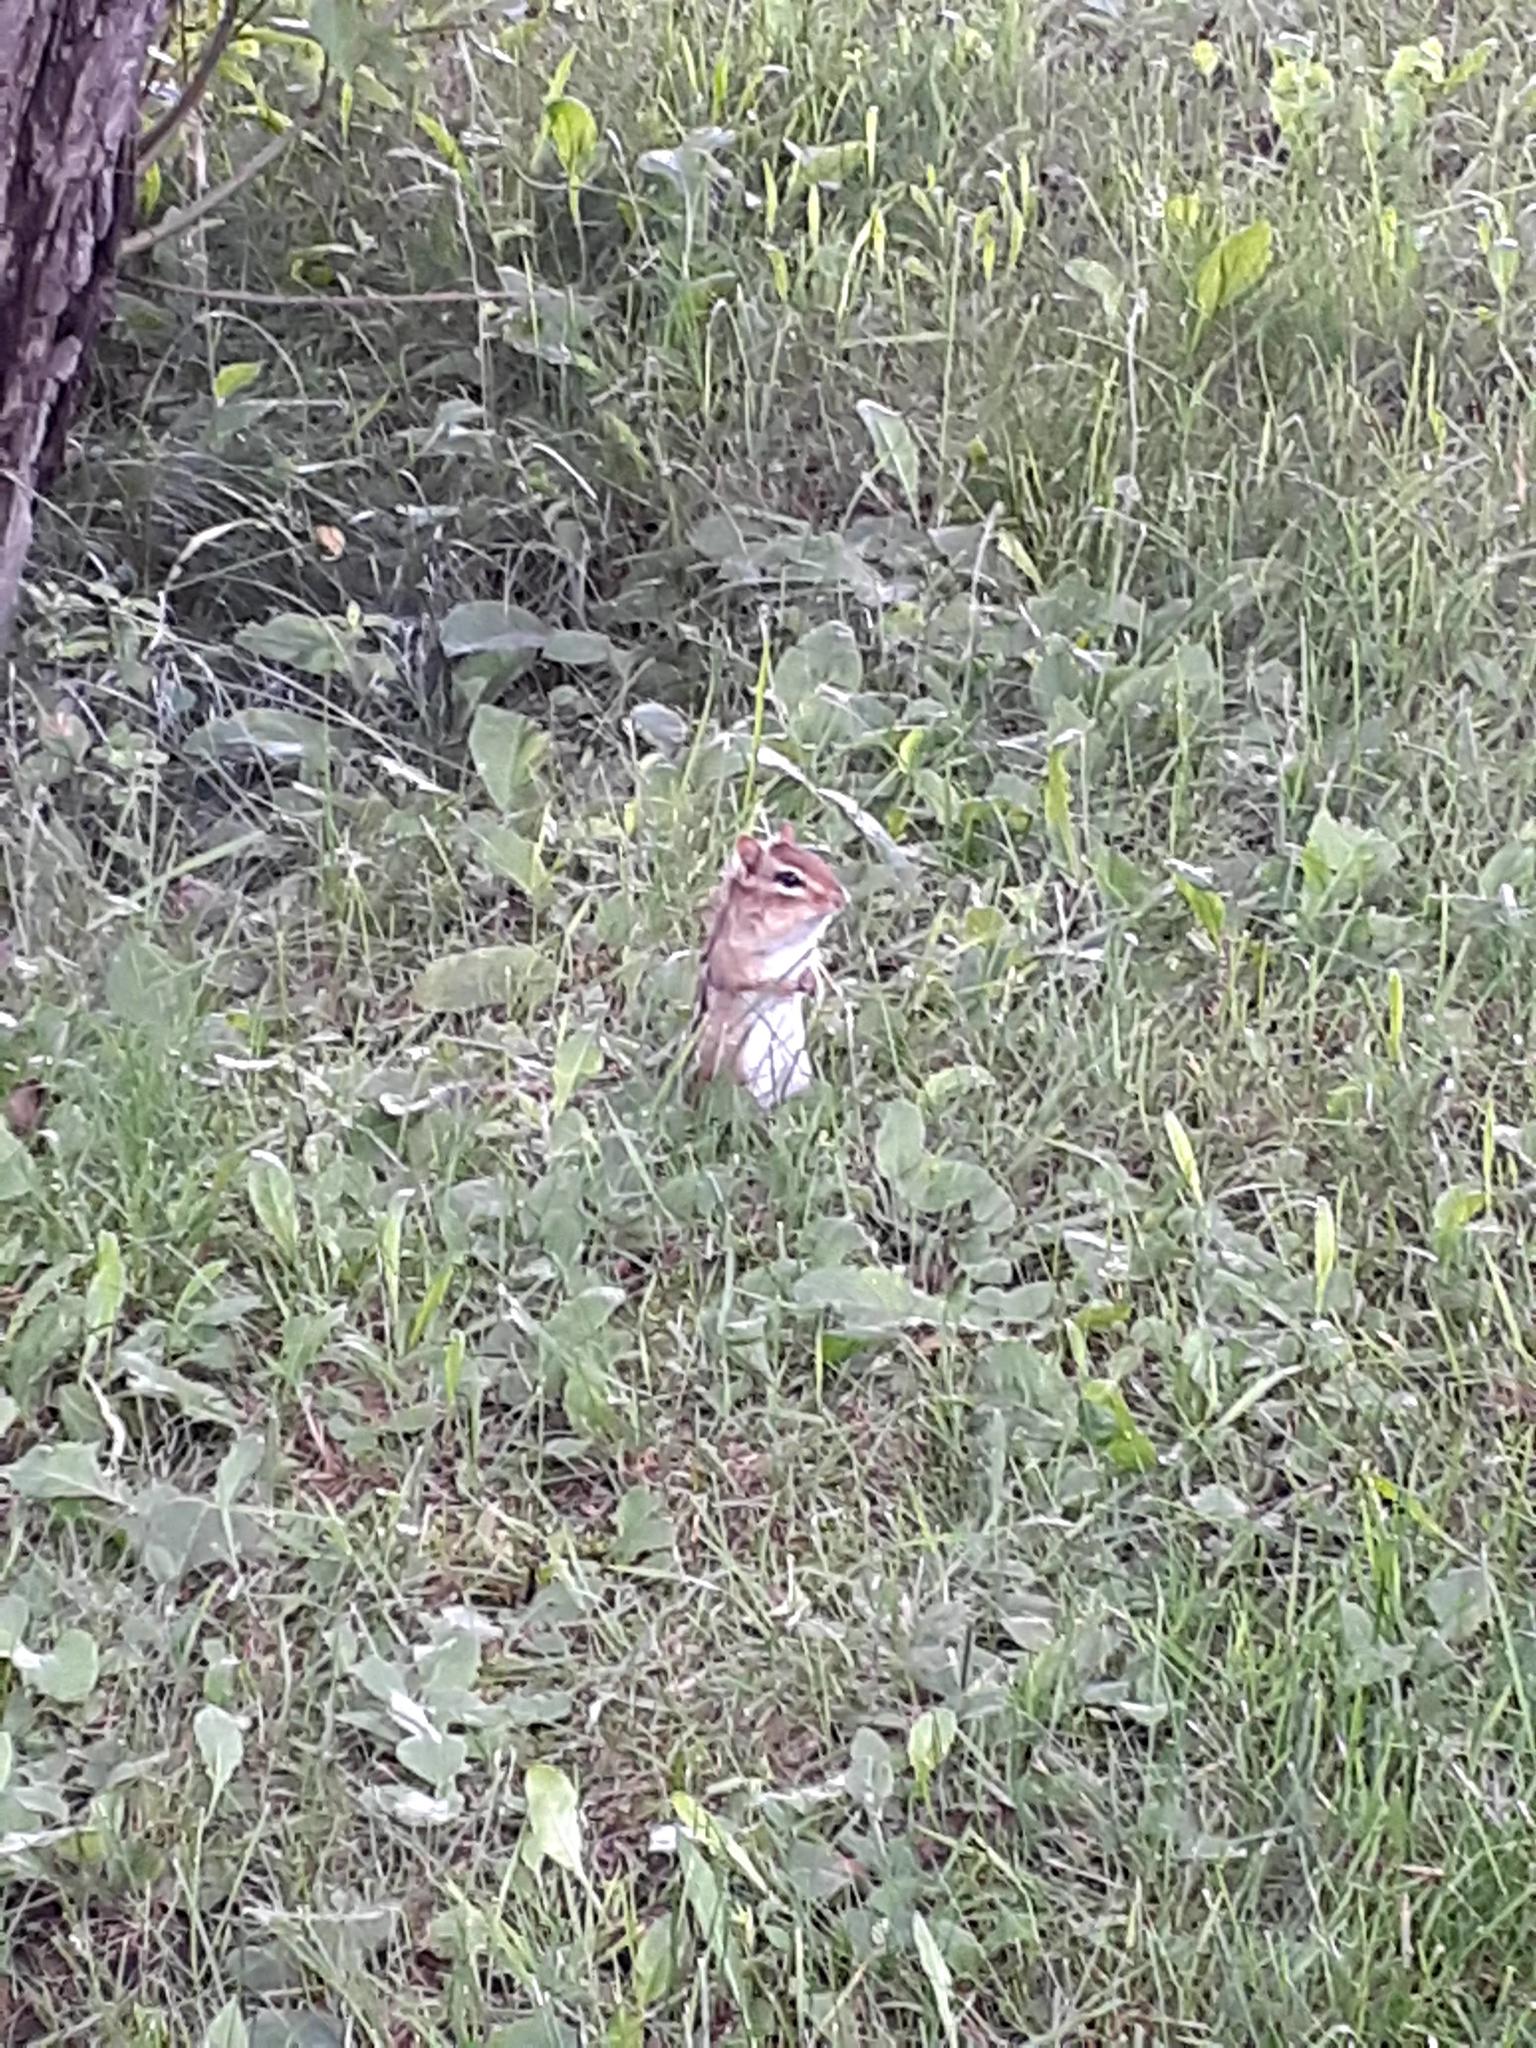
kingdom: Animalia
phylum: Chordata
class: Mammalia
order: Rodentia
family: Sciuridae
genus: Tamias
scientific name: Tamias striatus
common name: Eastern chipmunk
